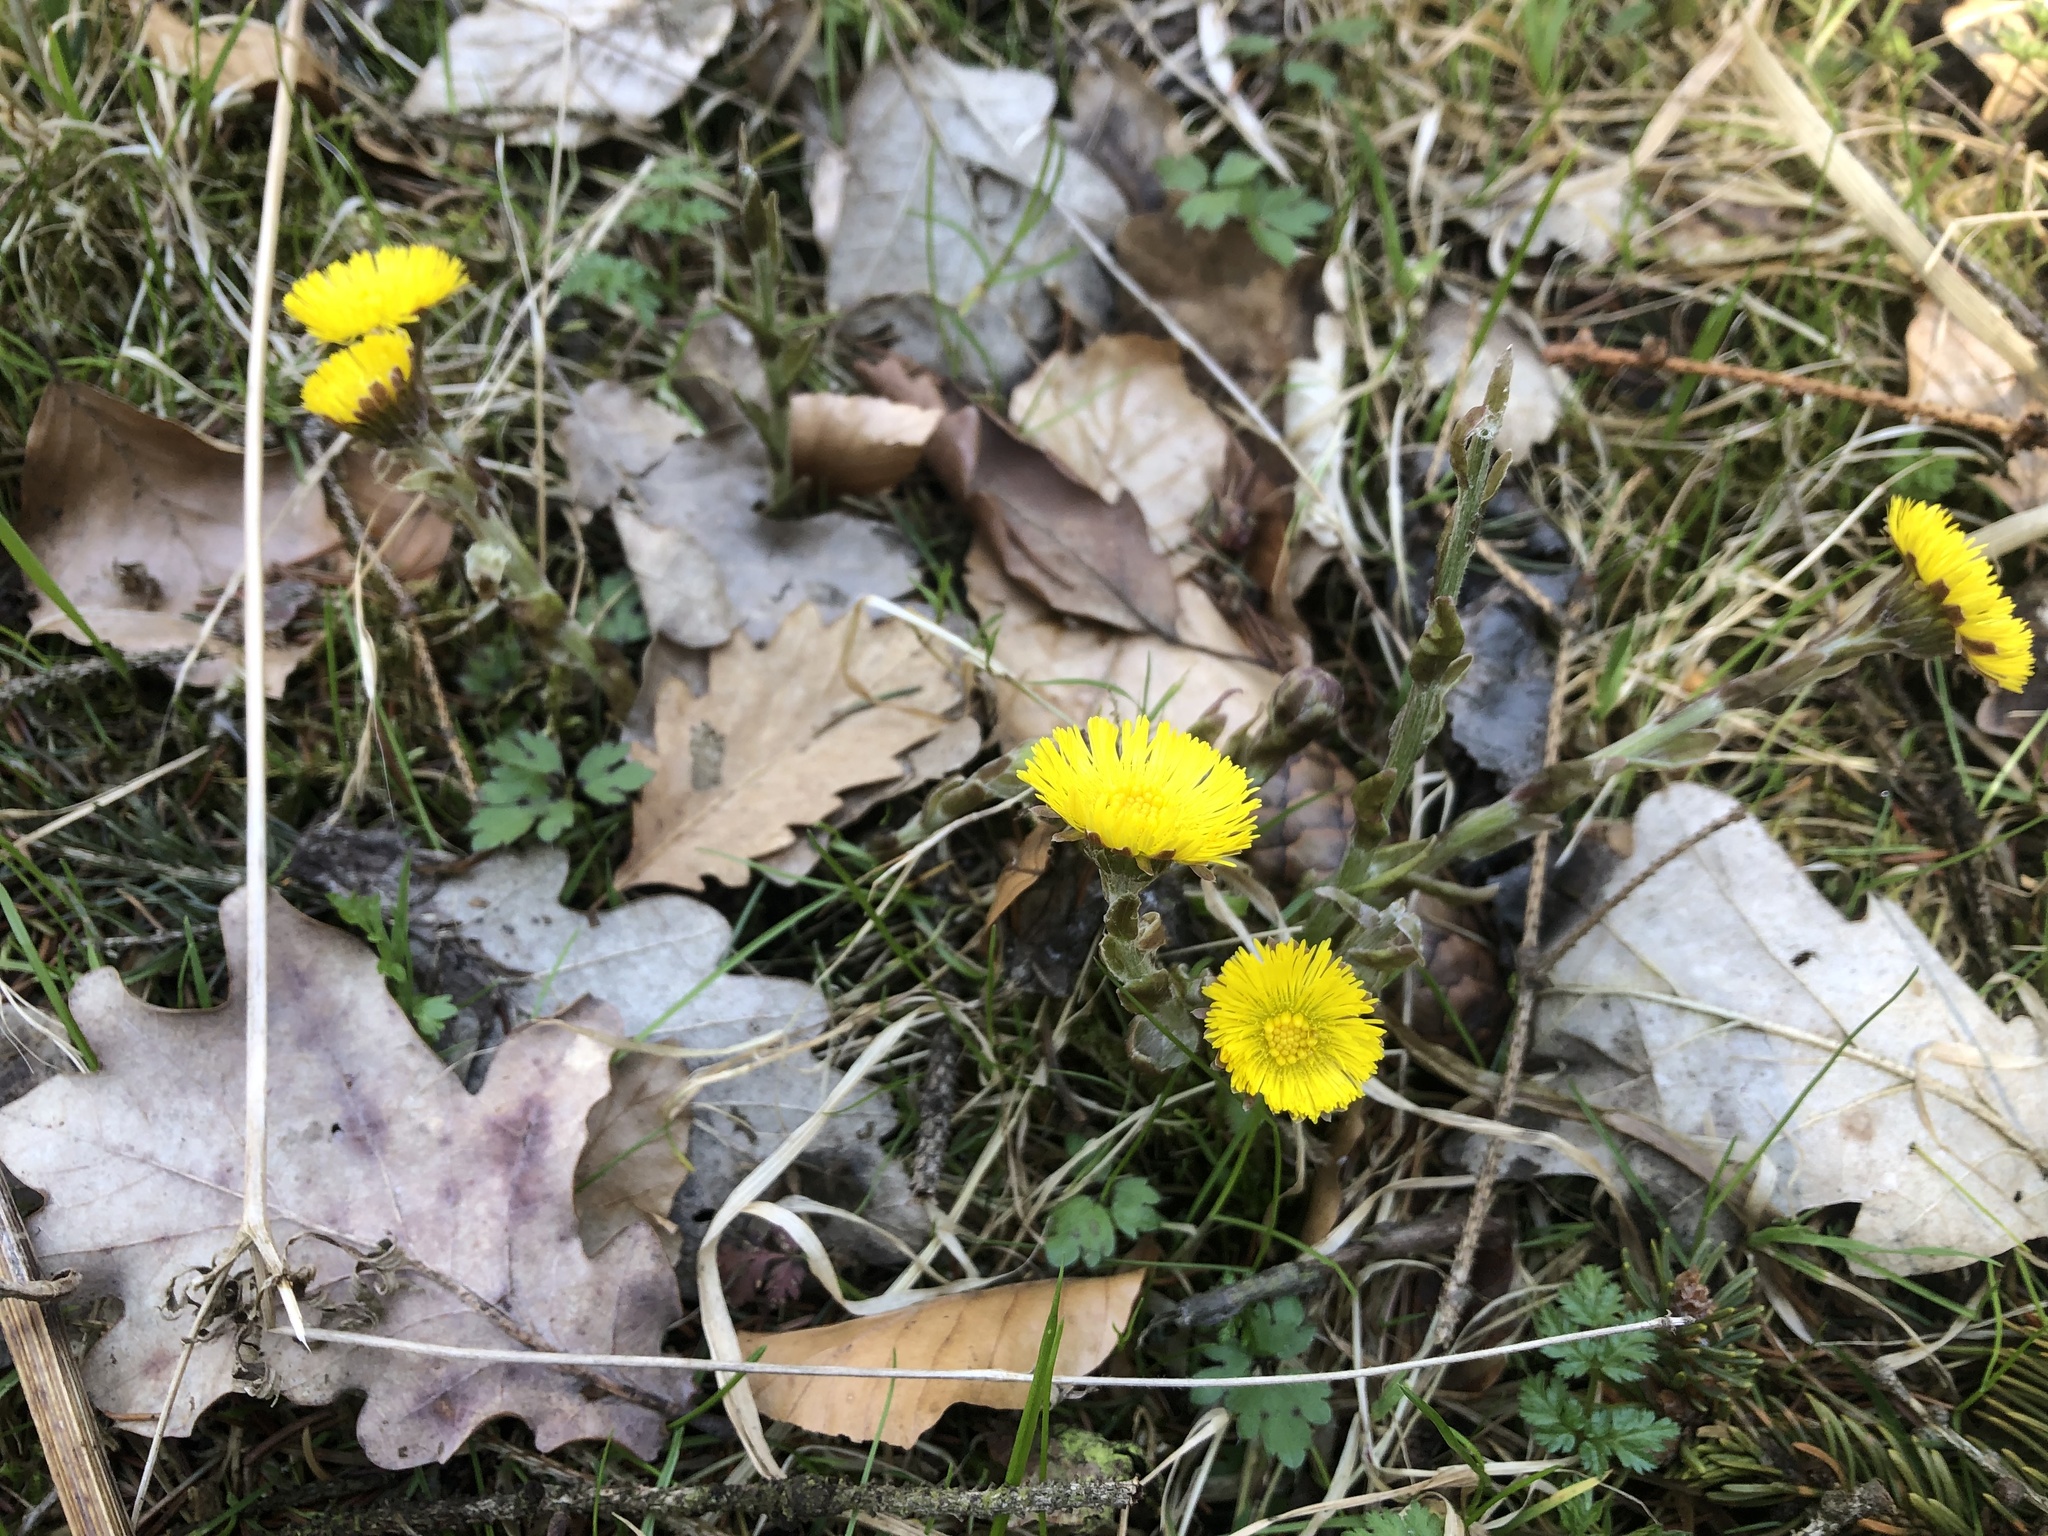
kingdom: Plantae
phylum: Tracheophyta
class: Magnoliopsida
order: Asterales
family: Asteraceae
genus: Tussilago
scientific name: Tussilago farfara
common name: Coltsfoot
